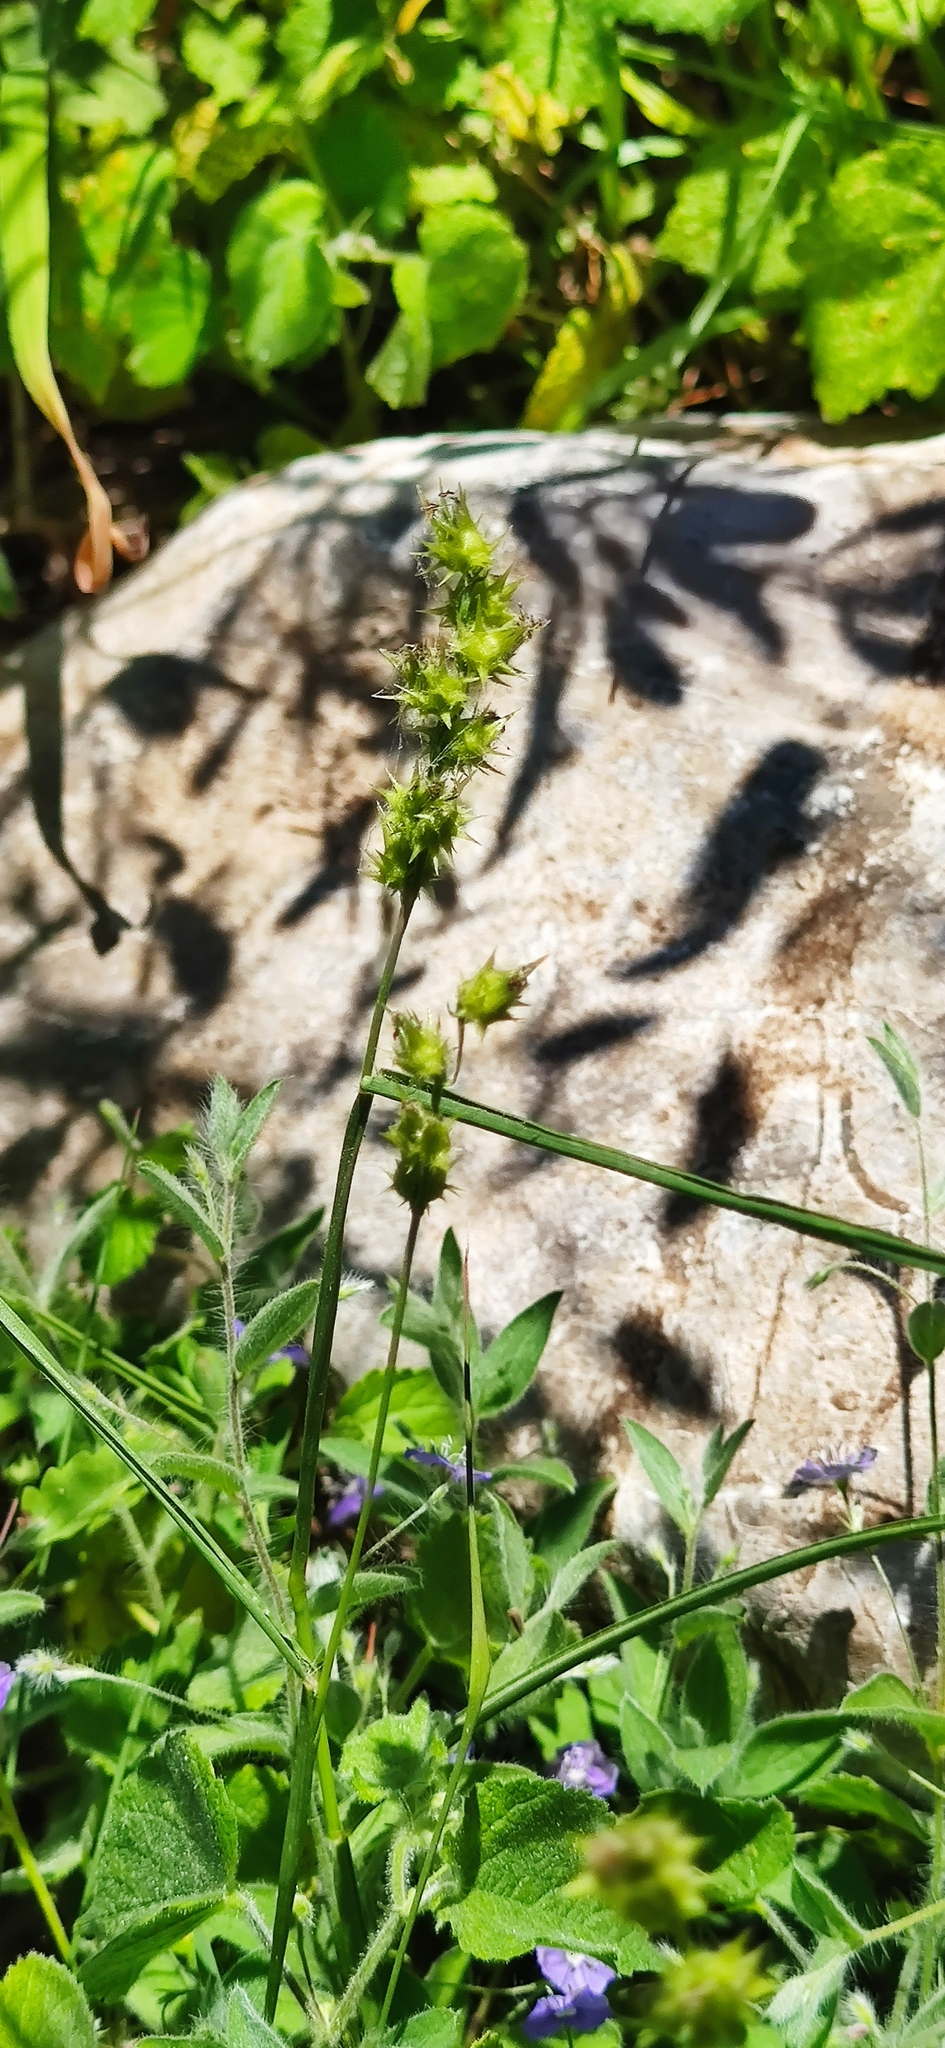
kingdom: Plantae
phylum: Tracheophyta
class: Liliopsida
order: Poales
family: Poaceae
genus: Cenchrus
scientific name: Cenchrus spinifex
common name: Coast sandbur
